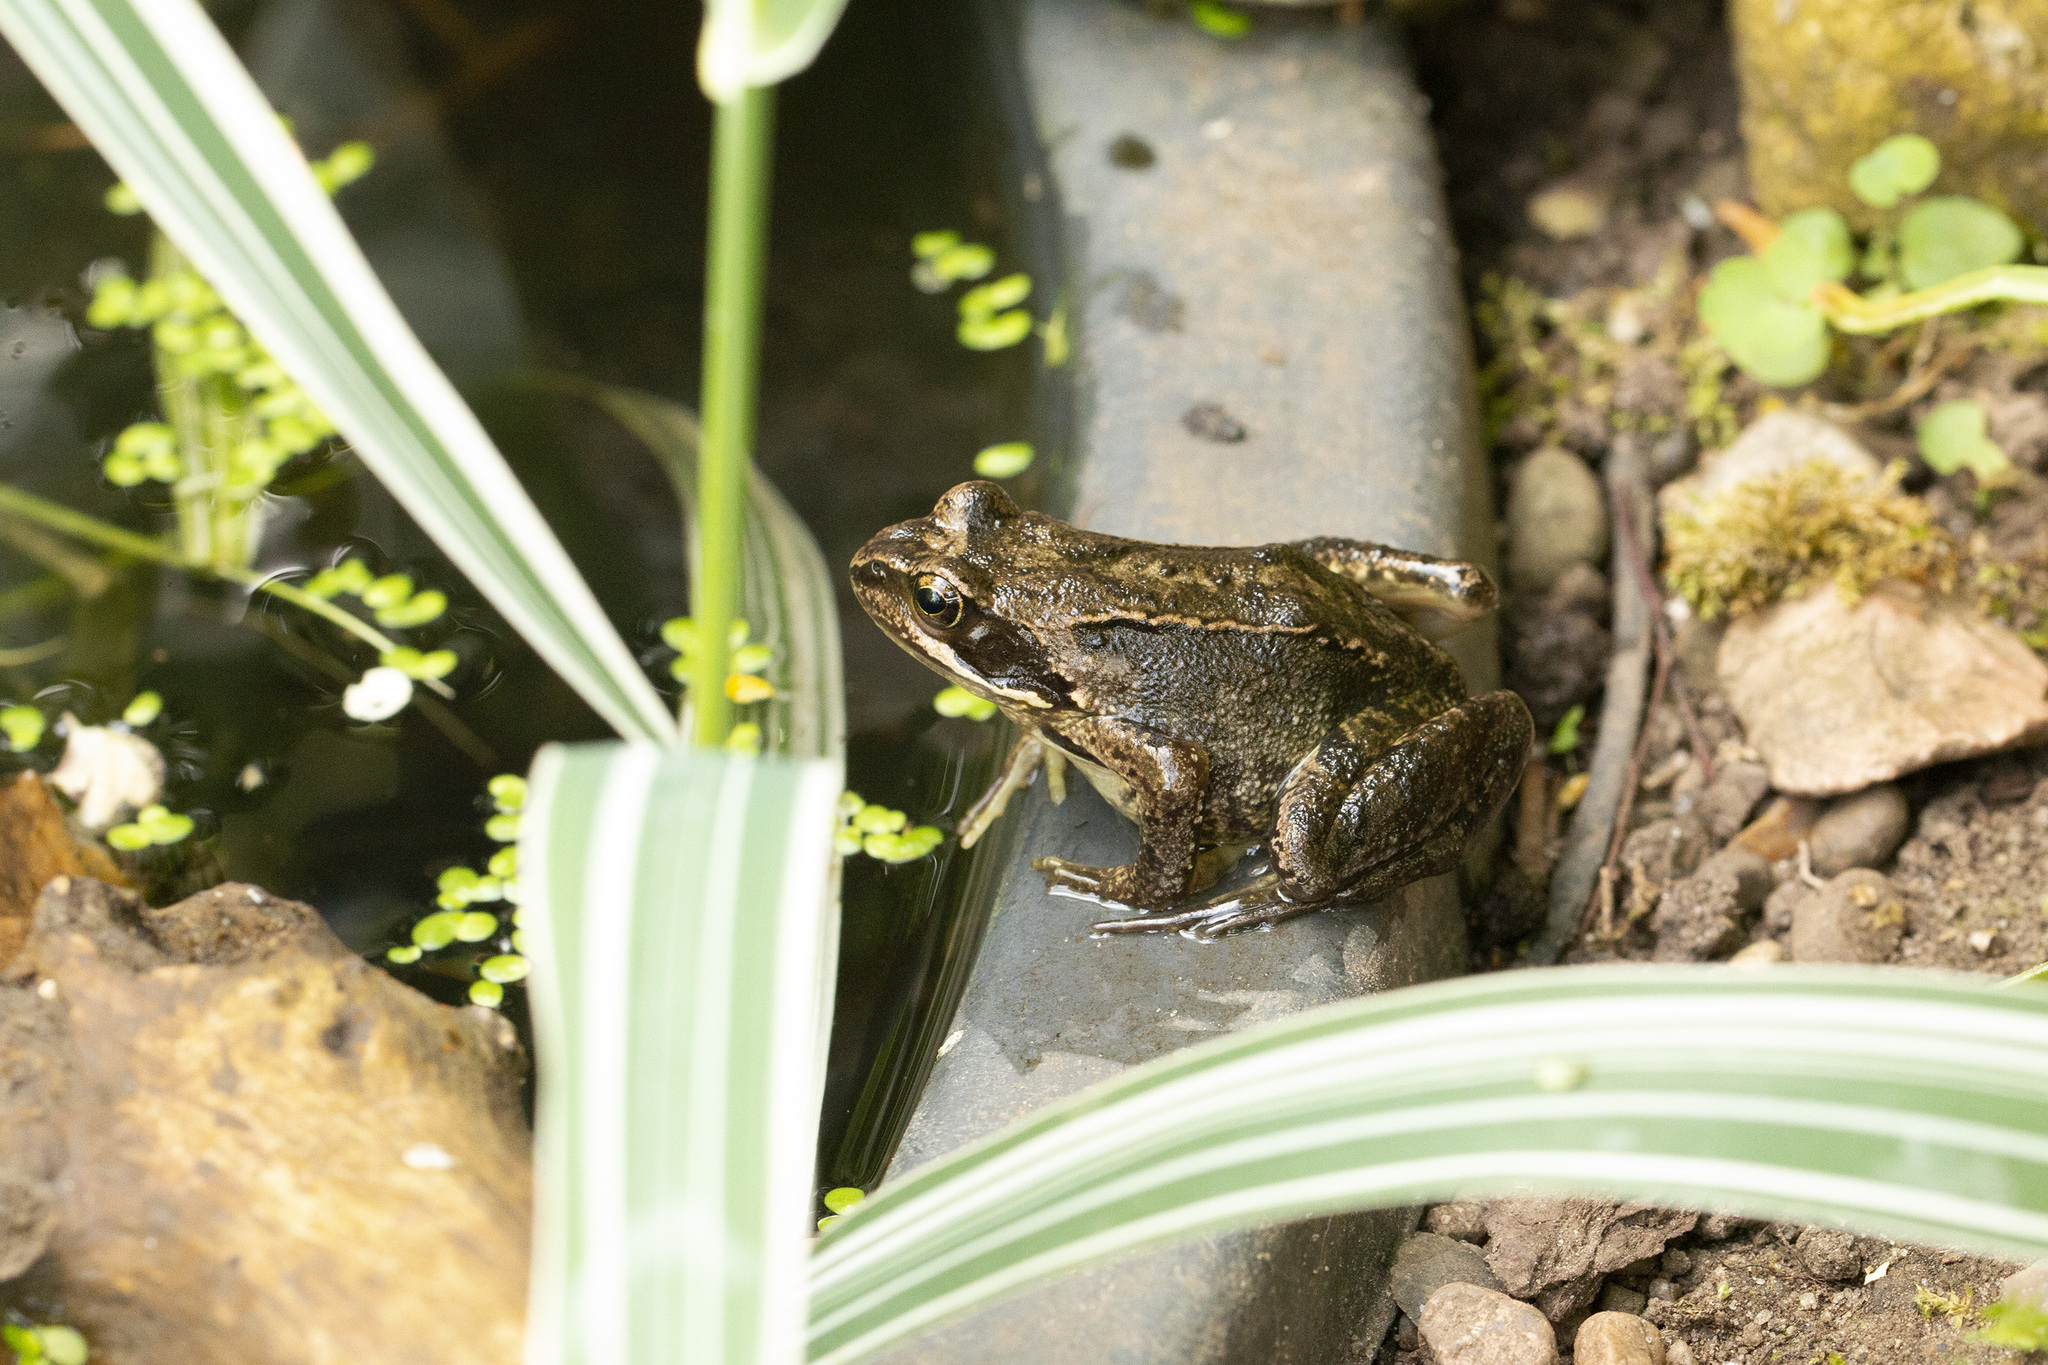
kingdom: Animalia
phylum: Chordata
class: Amphibia
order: Anura
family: Ranidae
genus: Rana
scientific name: Rana temporaria
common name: Common frog
